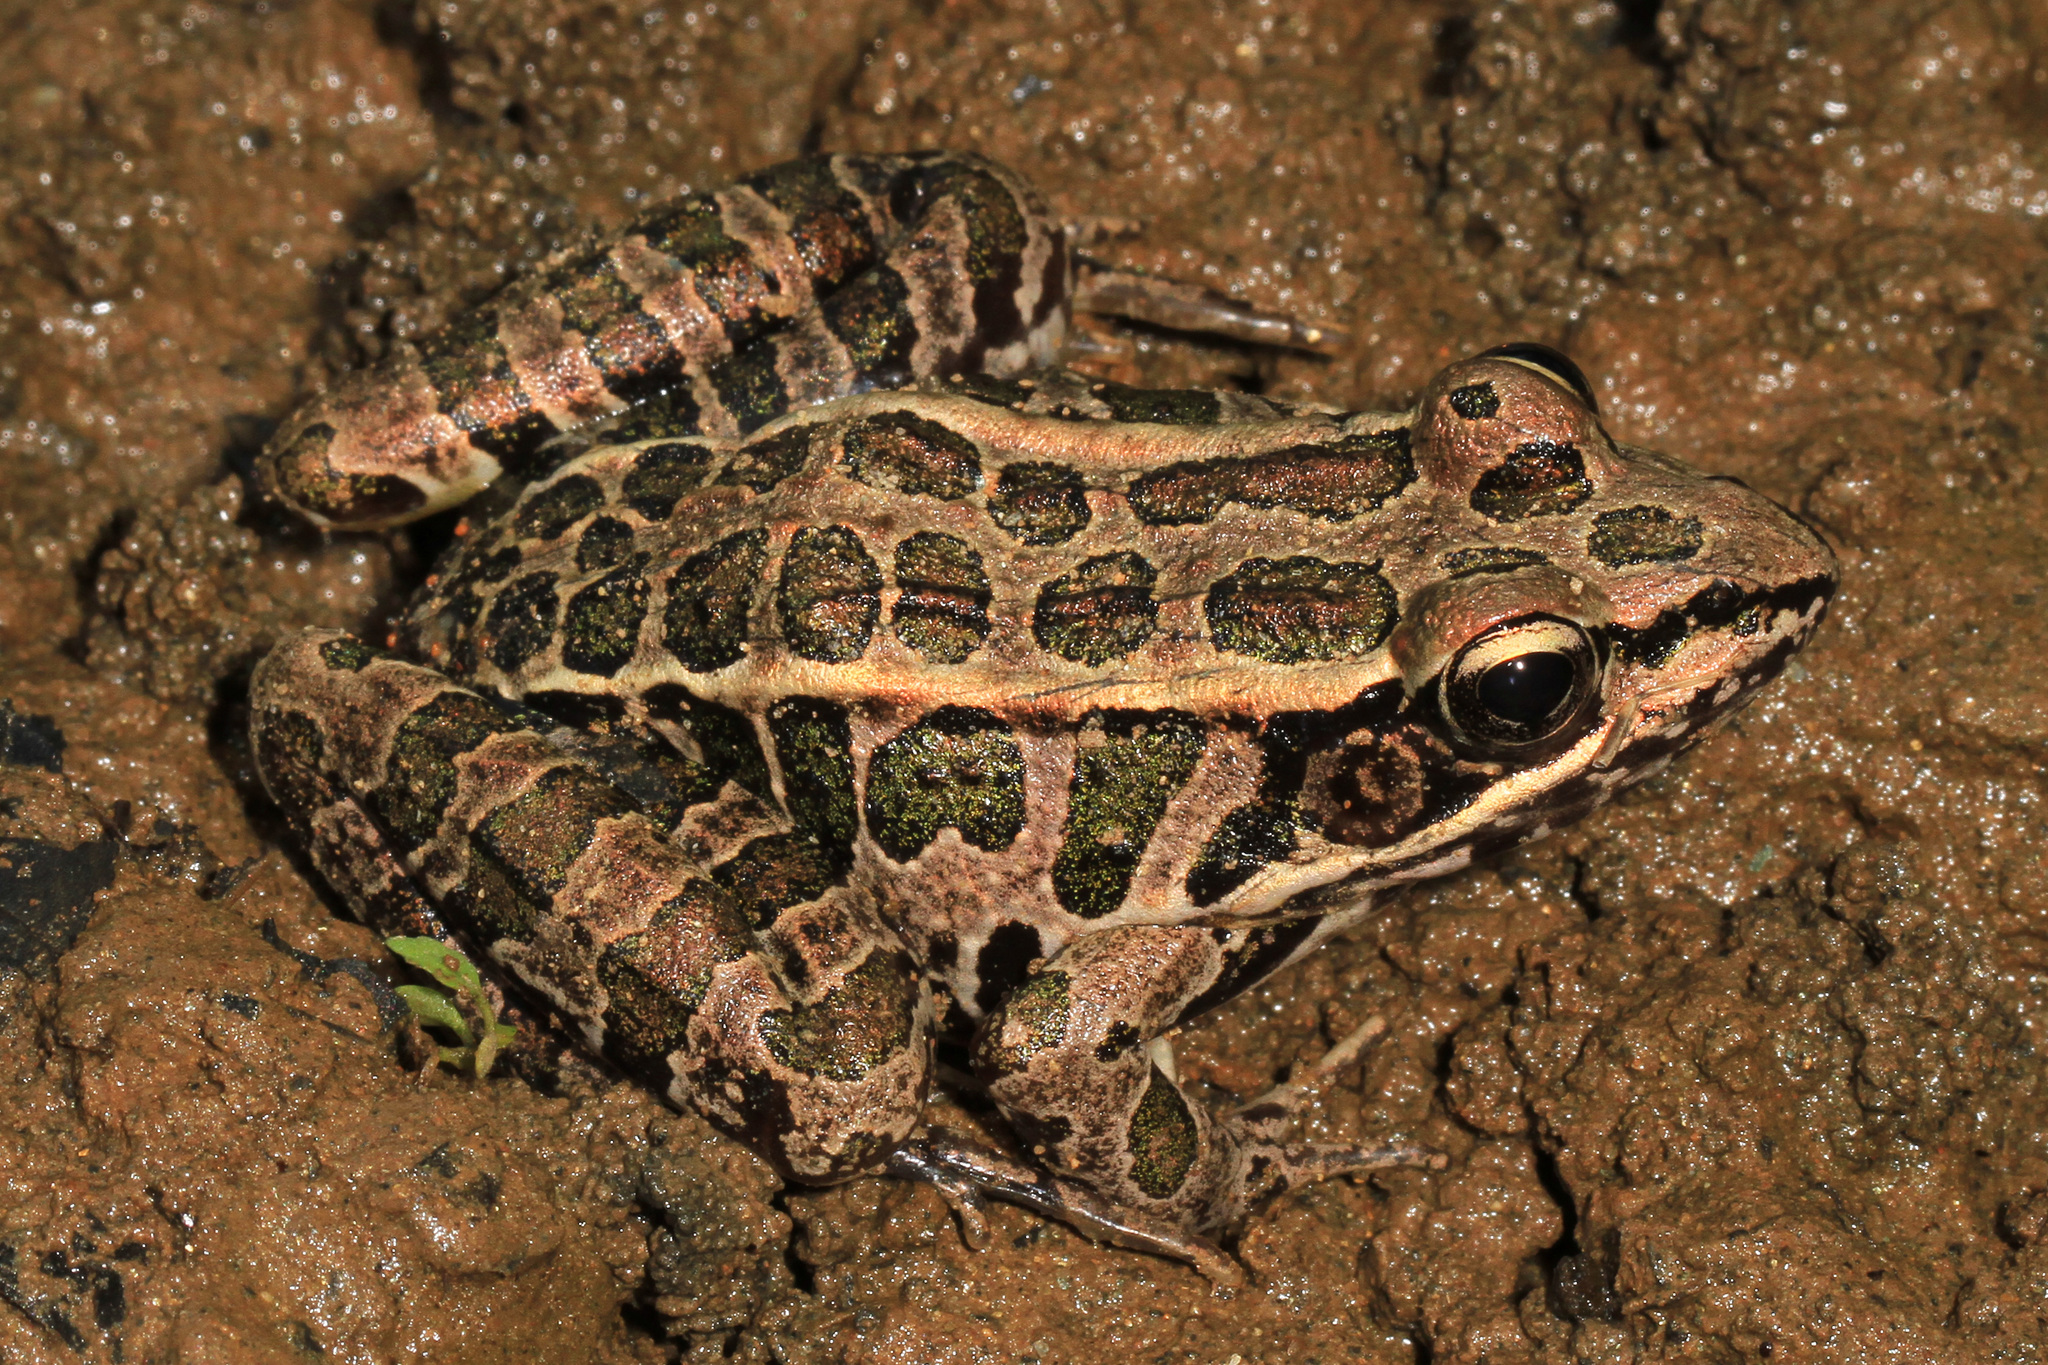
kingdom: Animalia
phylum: Chordata
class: Amphibia
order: Anura
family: Ranidae
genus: Lithobates
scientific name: Lithobates palustris
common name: Pickerel frog
